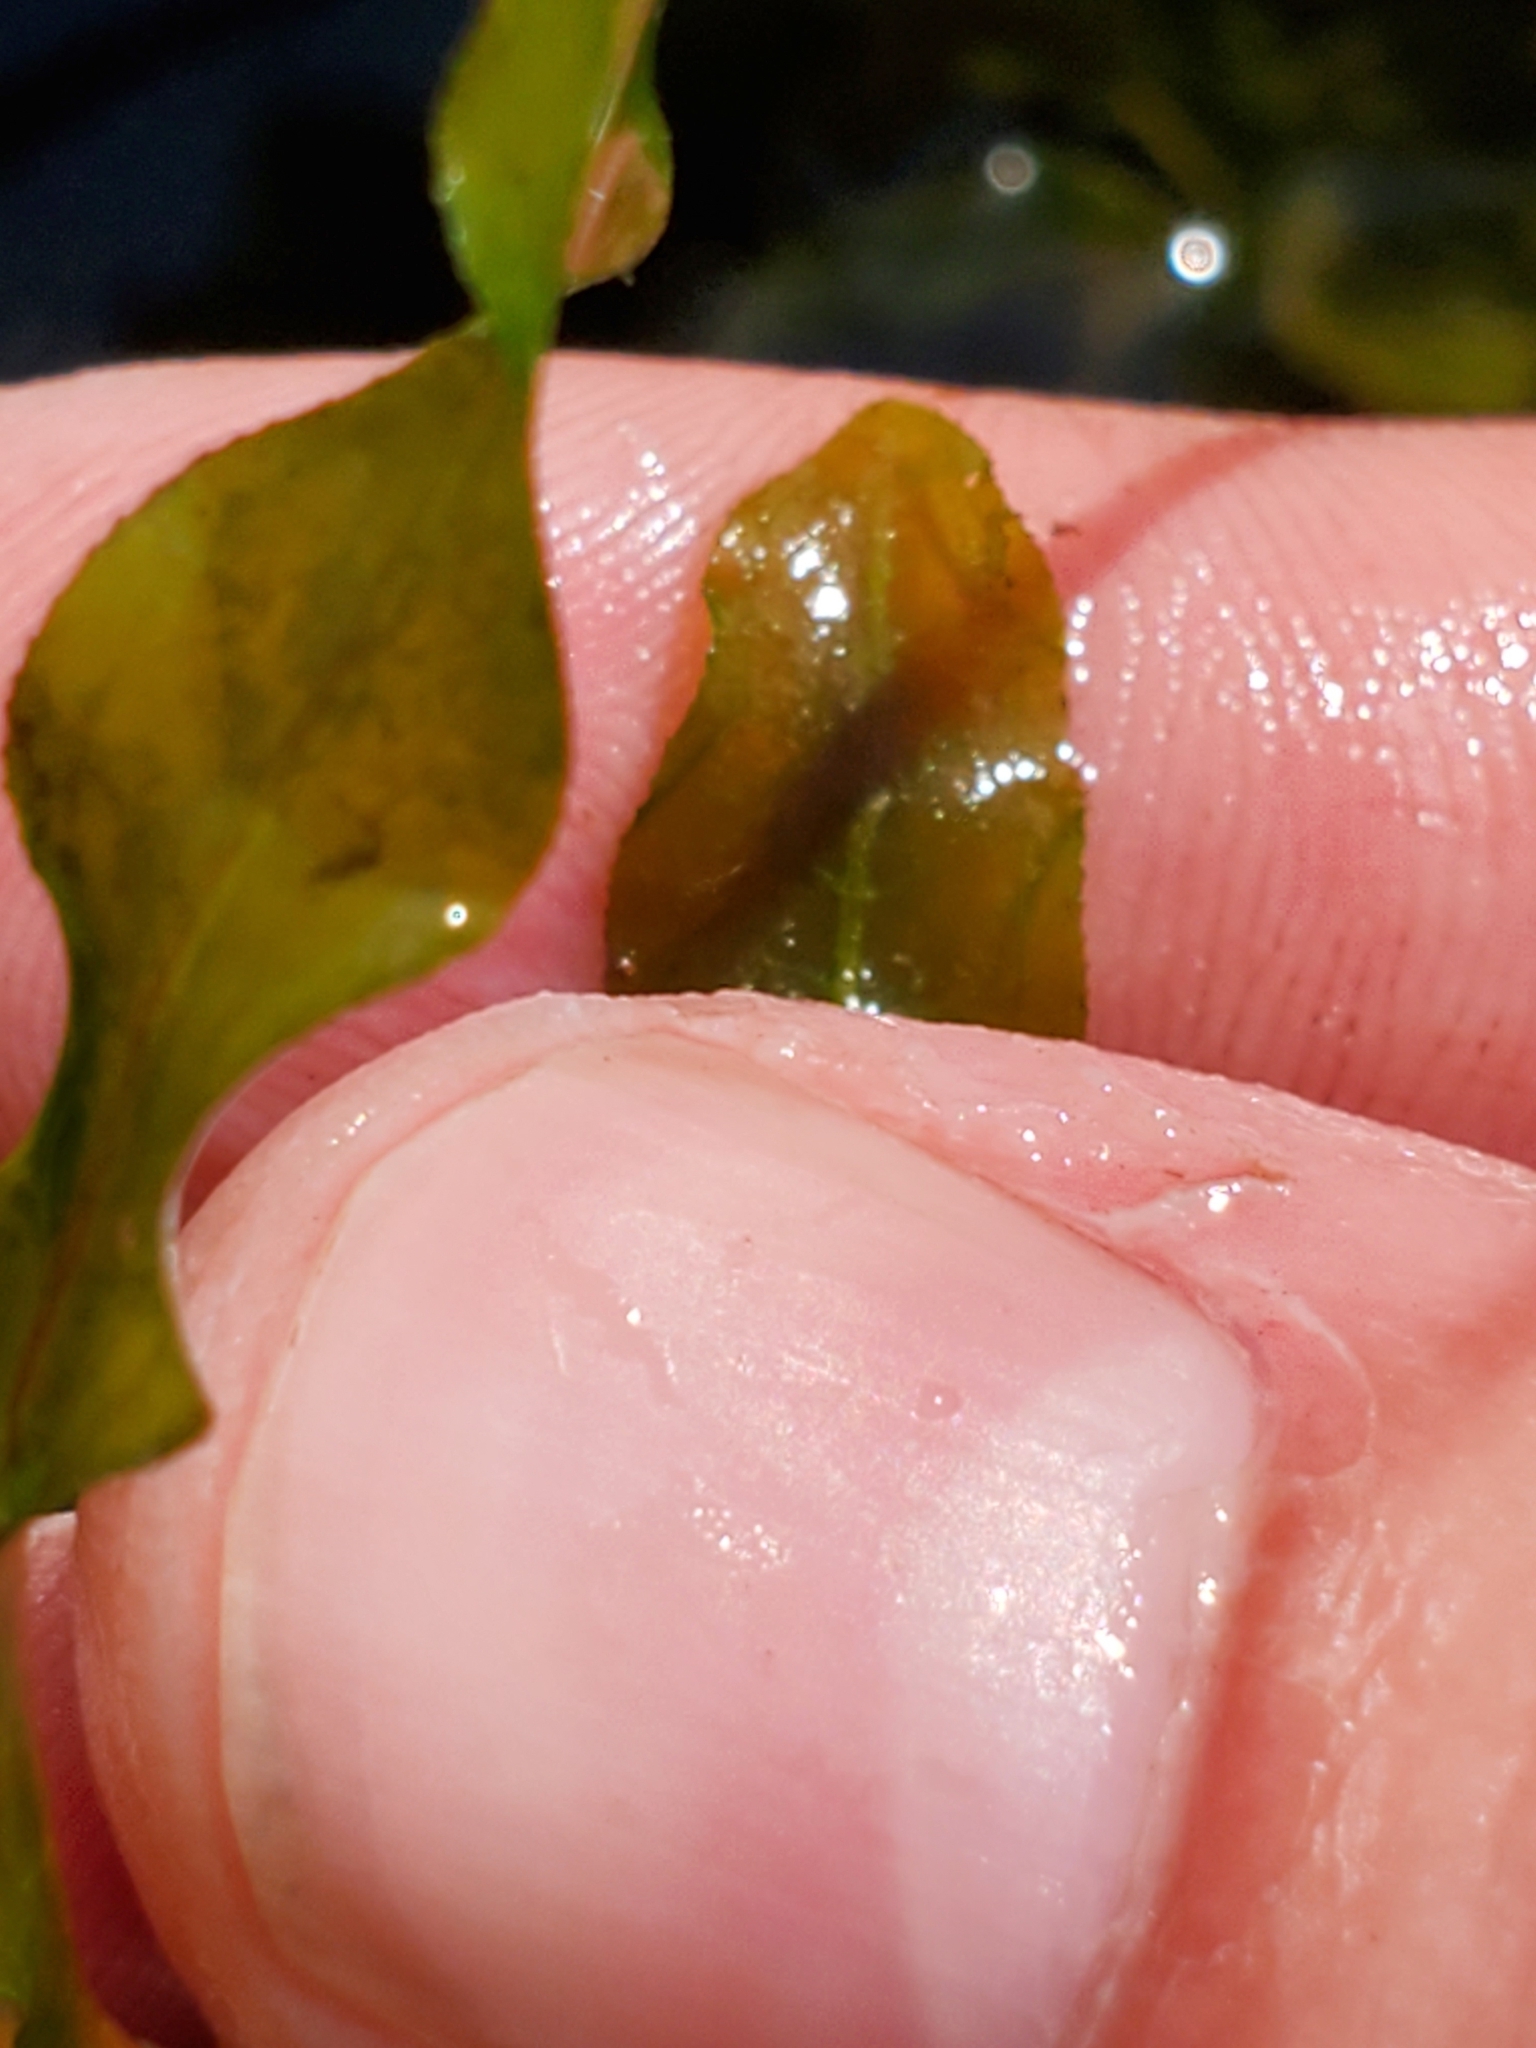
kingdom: Plantae
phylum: Tracheophyta
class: Liliopsida
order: Alismatales
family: Potamogetonaceae
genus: Potamogeton
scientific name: Potamogeton crispus
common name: Curled pondweed
